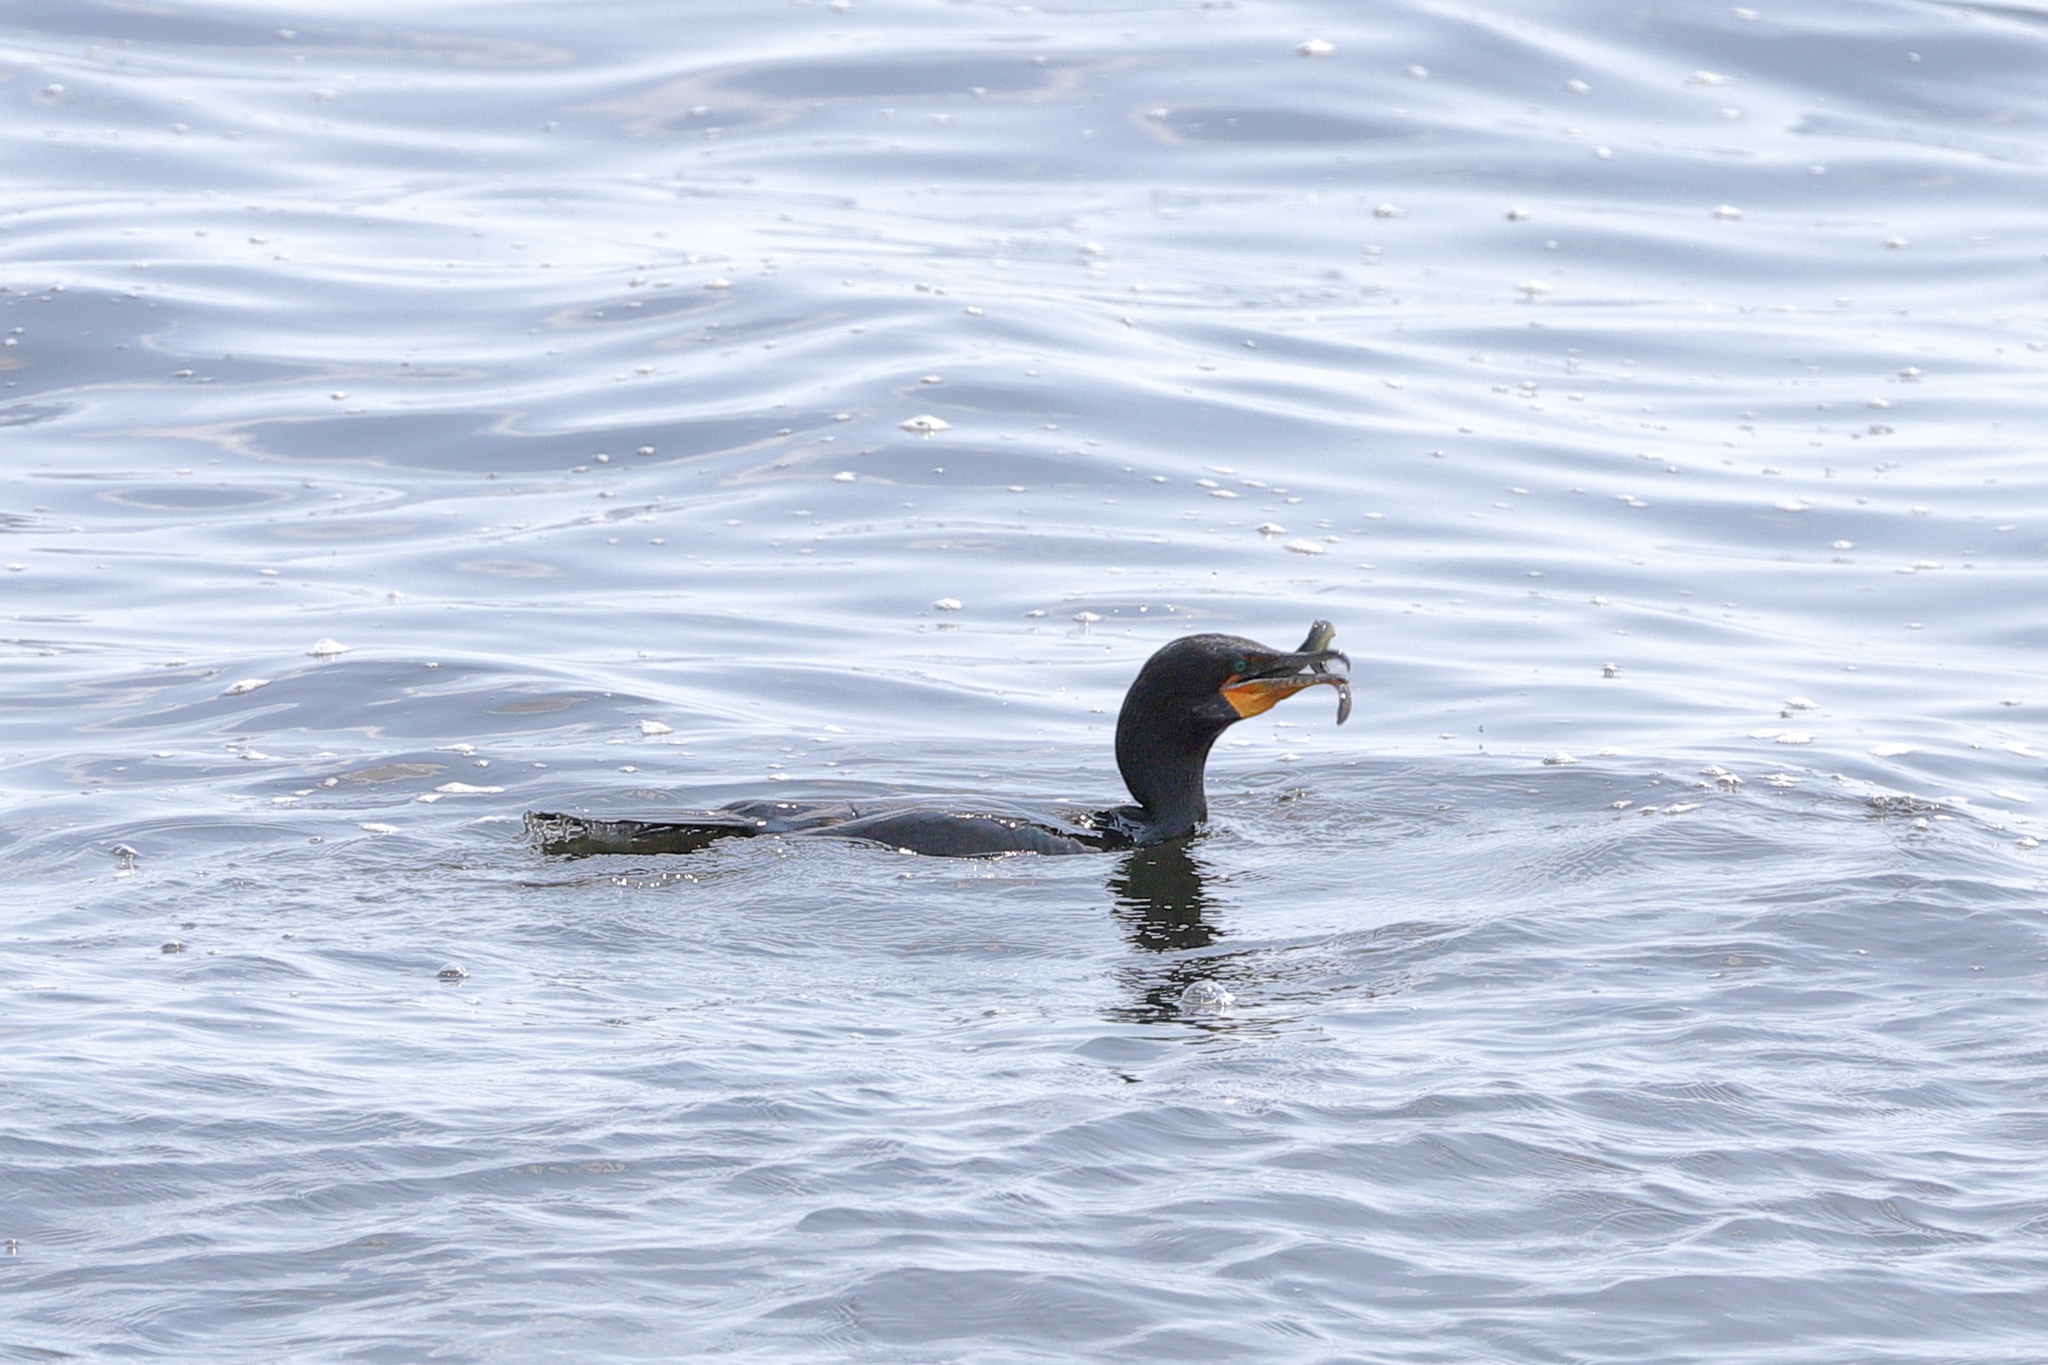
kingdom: Animalia
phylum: Chordata
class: Aves
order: Suliformes
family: Phalacrocoracidae
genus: Phalacrocorax
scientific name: Phalacrocorax auritus
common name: Double-crested cormorant
